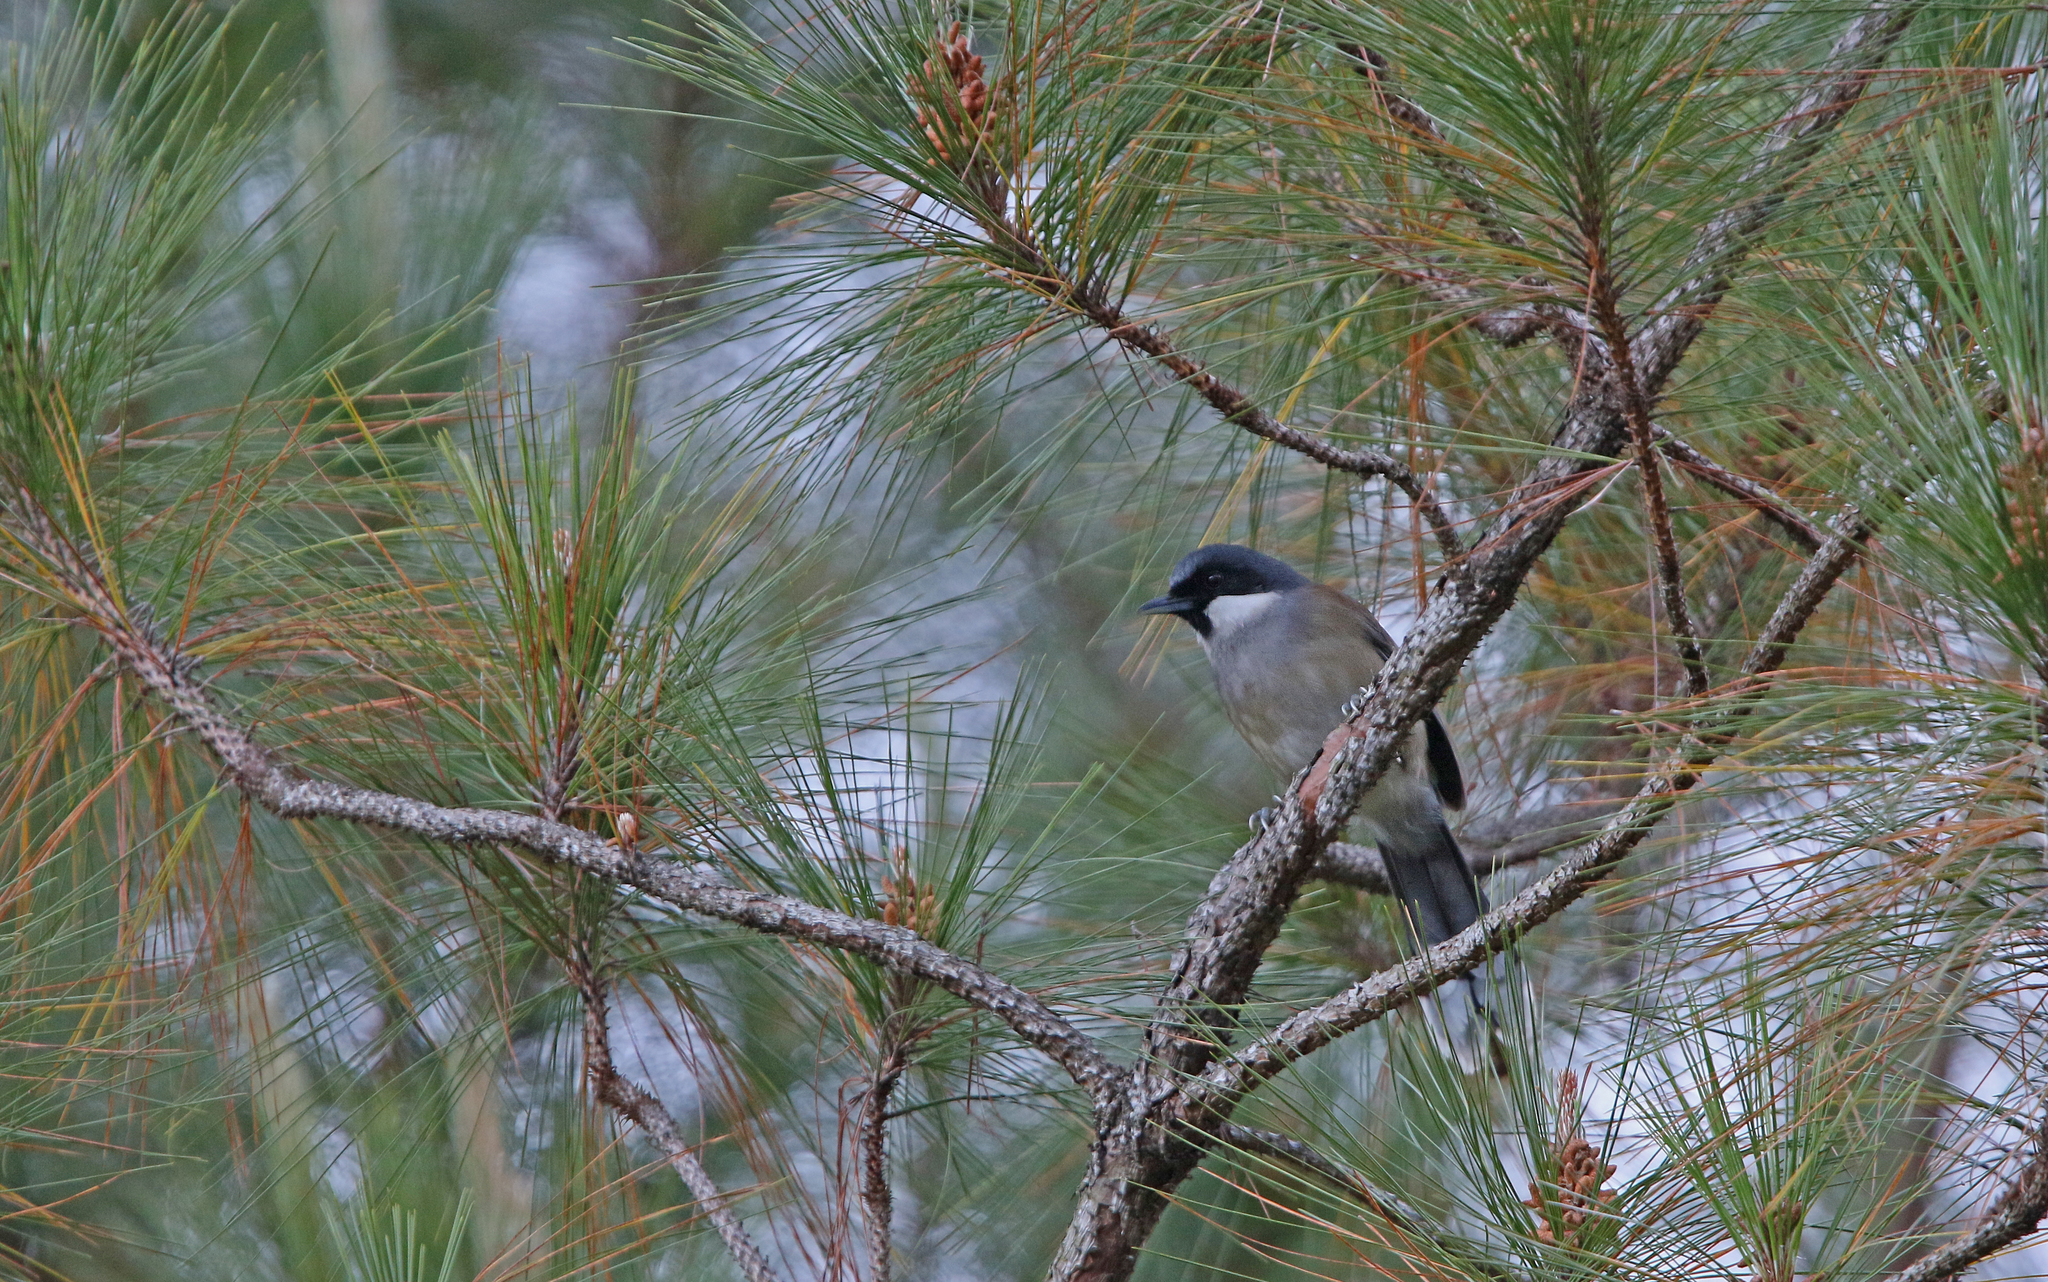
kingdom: Animalia
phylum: Chordata
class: Aves
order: Passeriformes
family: Leiothrichidae
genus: Garrulax
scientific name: Garrulax vassali
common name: White-cheeked laughingthrush
